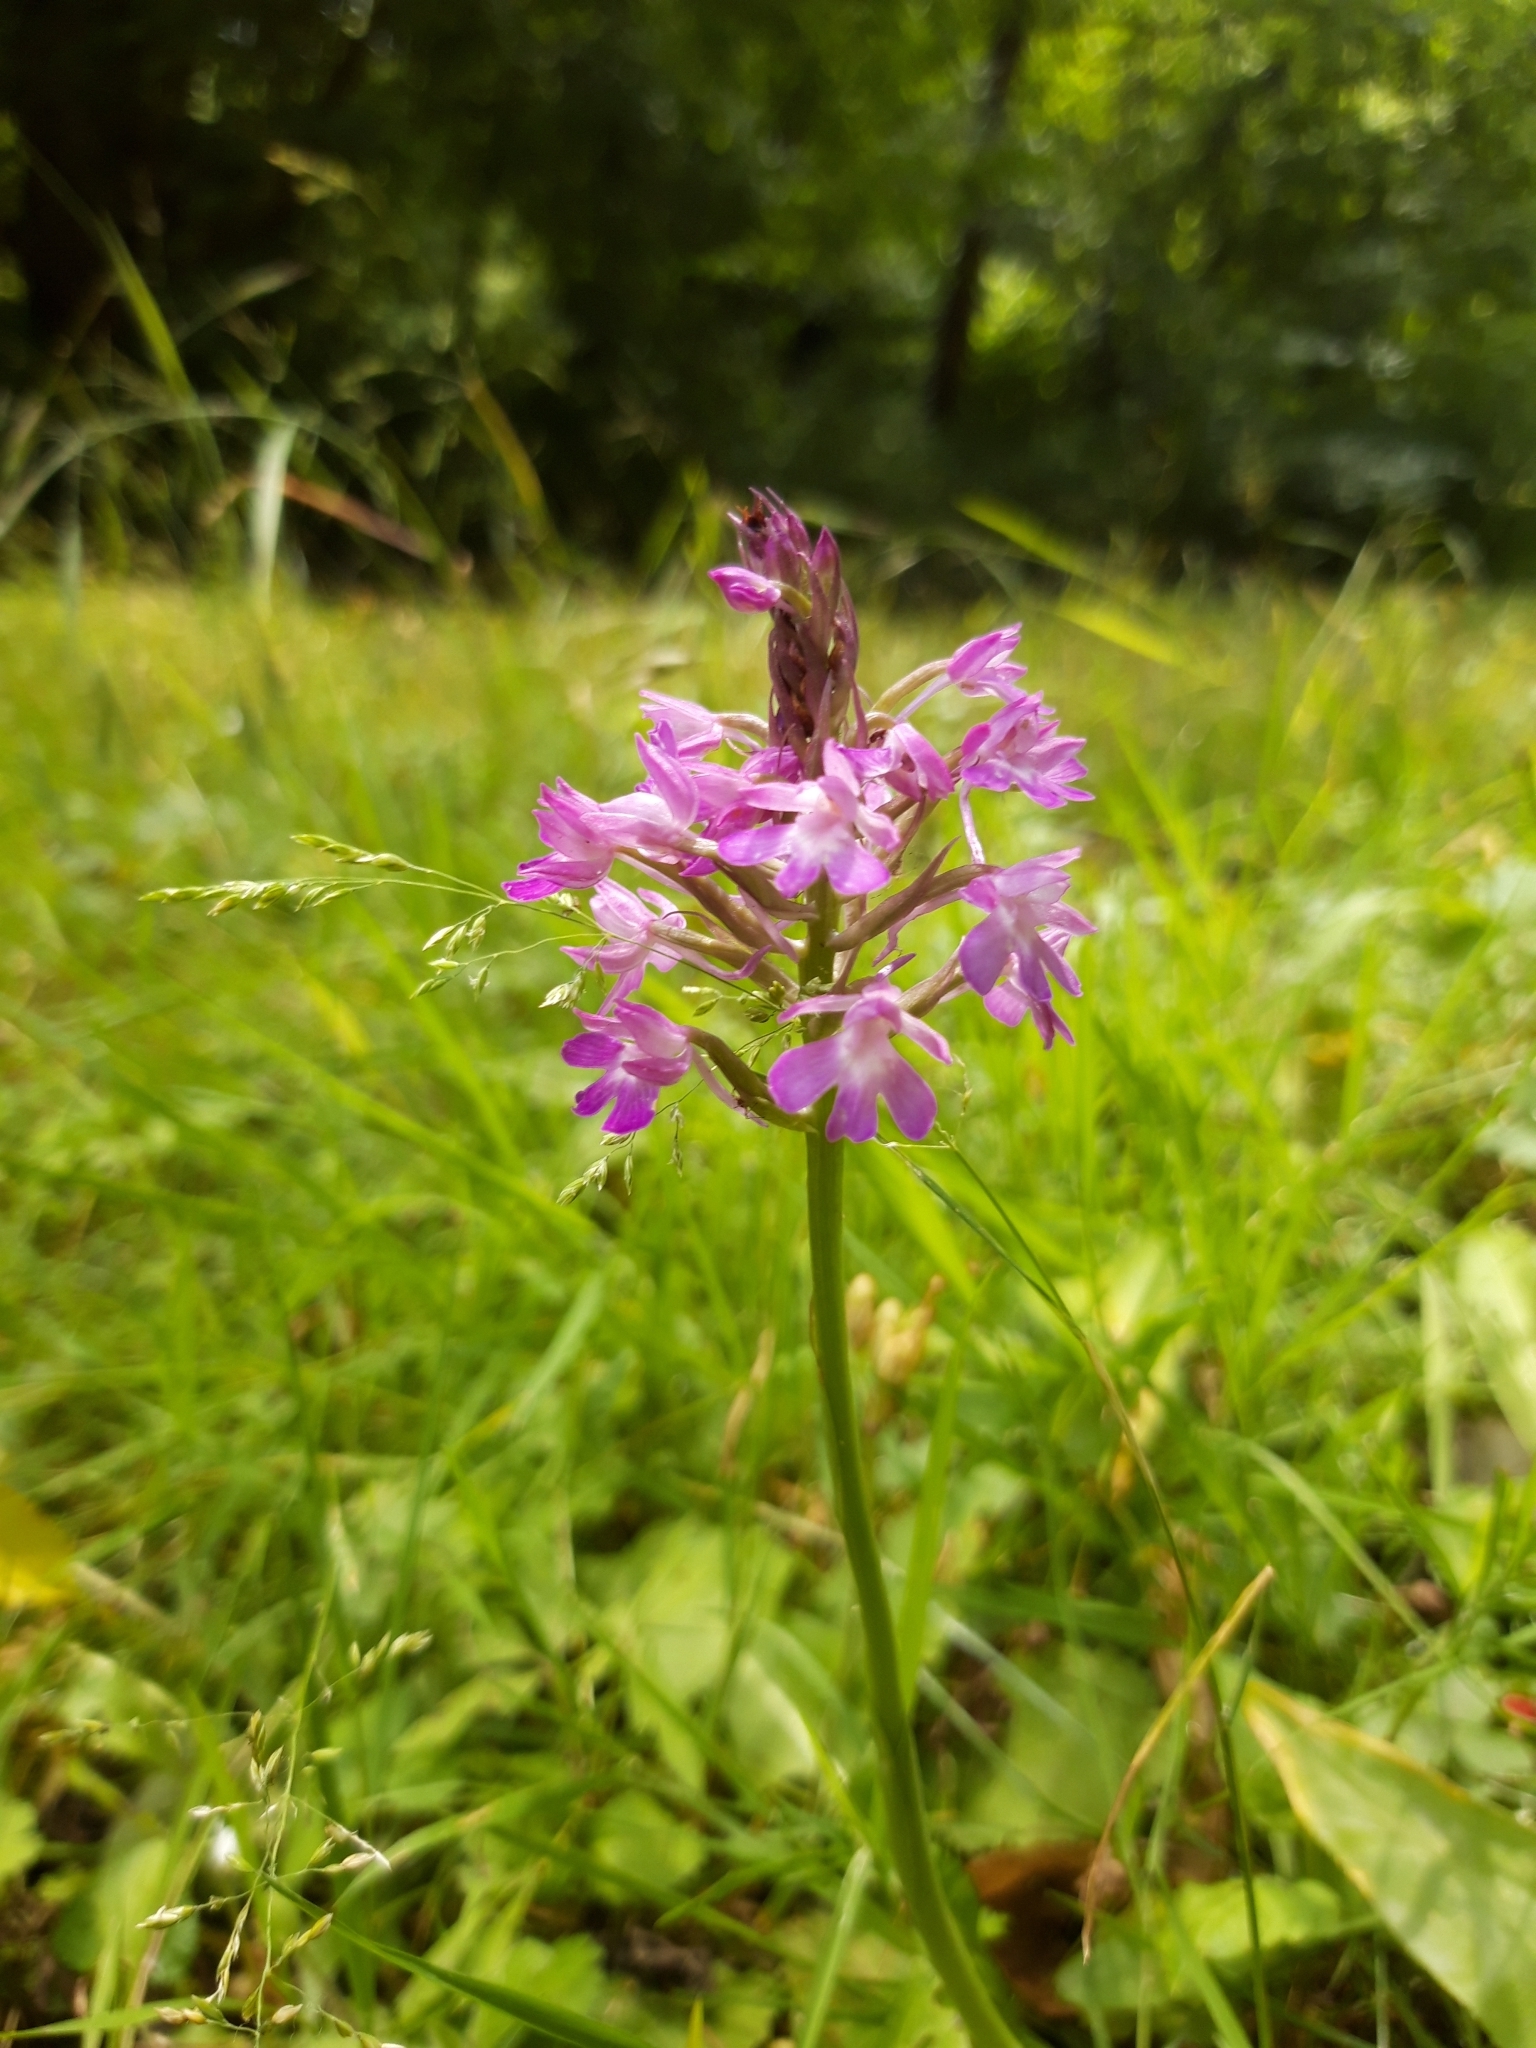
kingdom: Plantae
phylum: Tracheophyta
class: Liliopsida
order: Asparagales
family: Orchidaceae
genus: Anacamptis
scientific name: Anacamptis pyramidalis
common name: Pyramidal orchid
